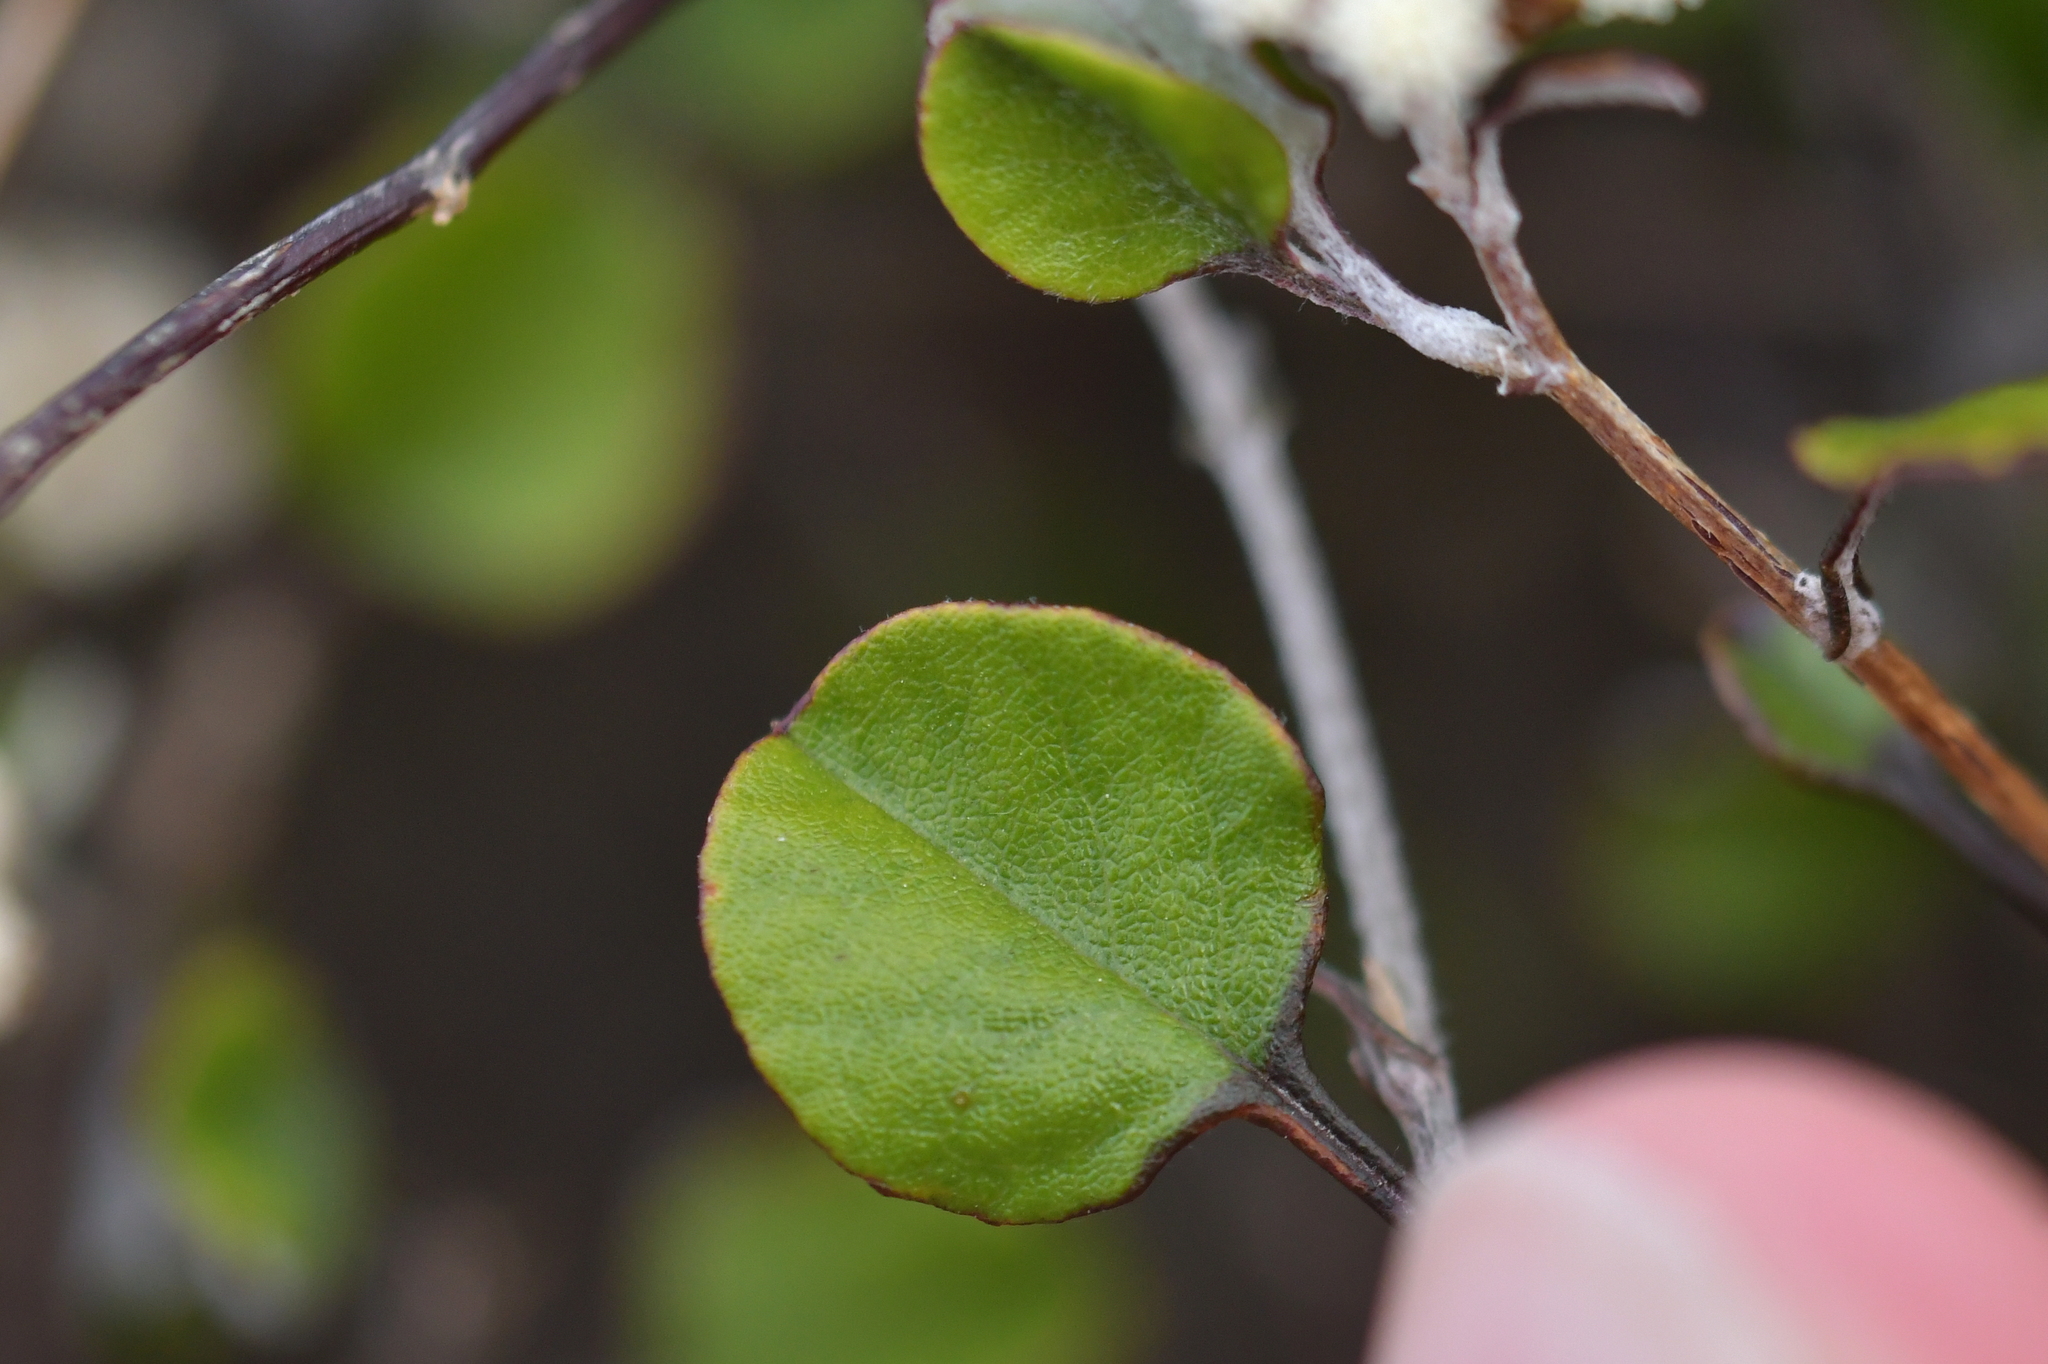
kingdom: Plantae
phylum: Tracheophyta
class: Magnoliopsida
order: Asterales
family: Asteraceae
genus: Ozothamnus
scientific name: Ozothamnus glomeratus
